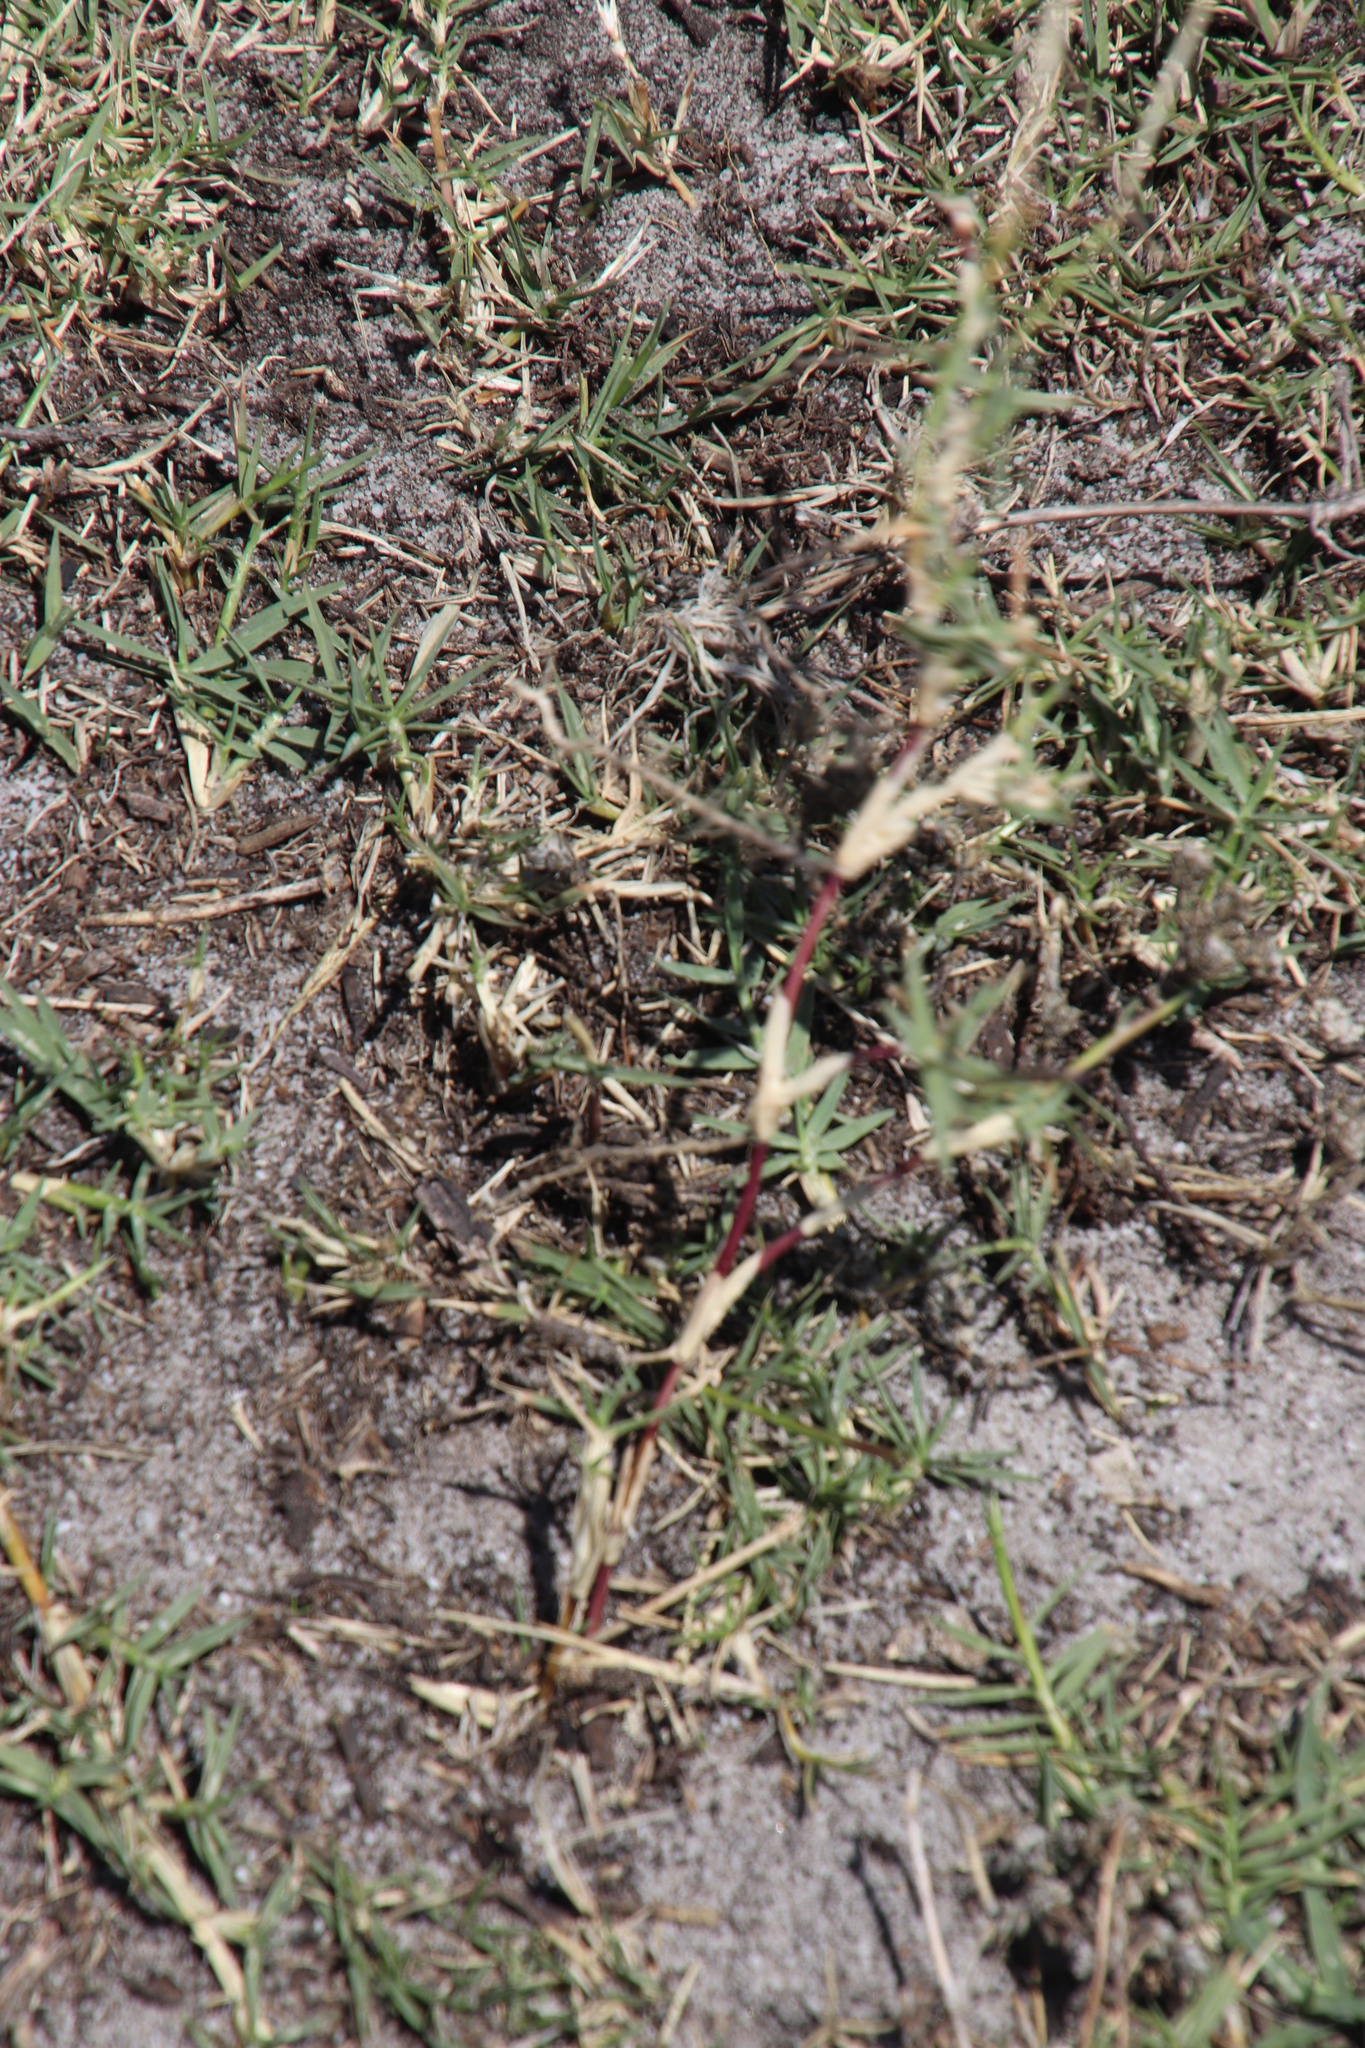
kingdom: Plantae
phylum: Tracheophyta
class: Liliopsida
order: Poales
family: Poaceae
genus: Cynodon
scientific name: Cynodon dactylon
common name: Bermuda grass
